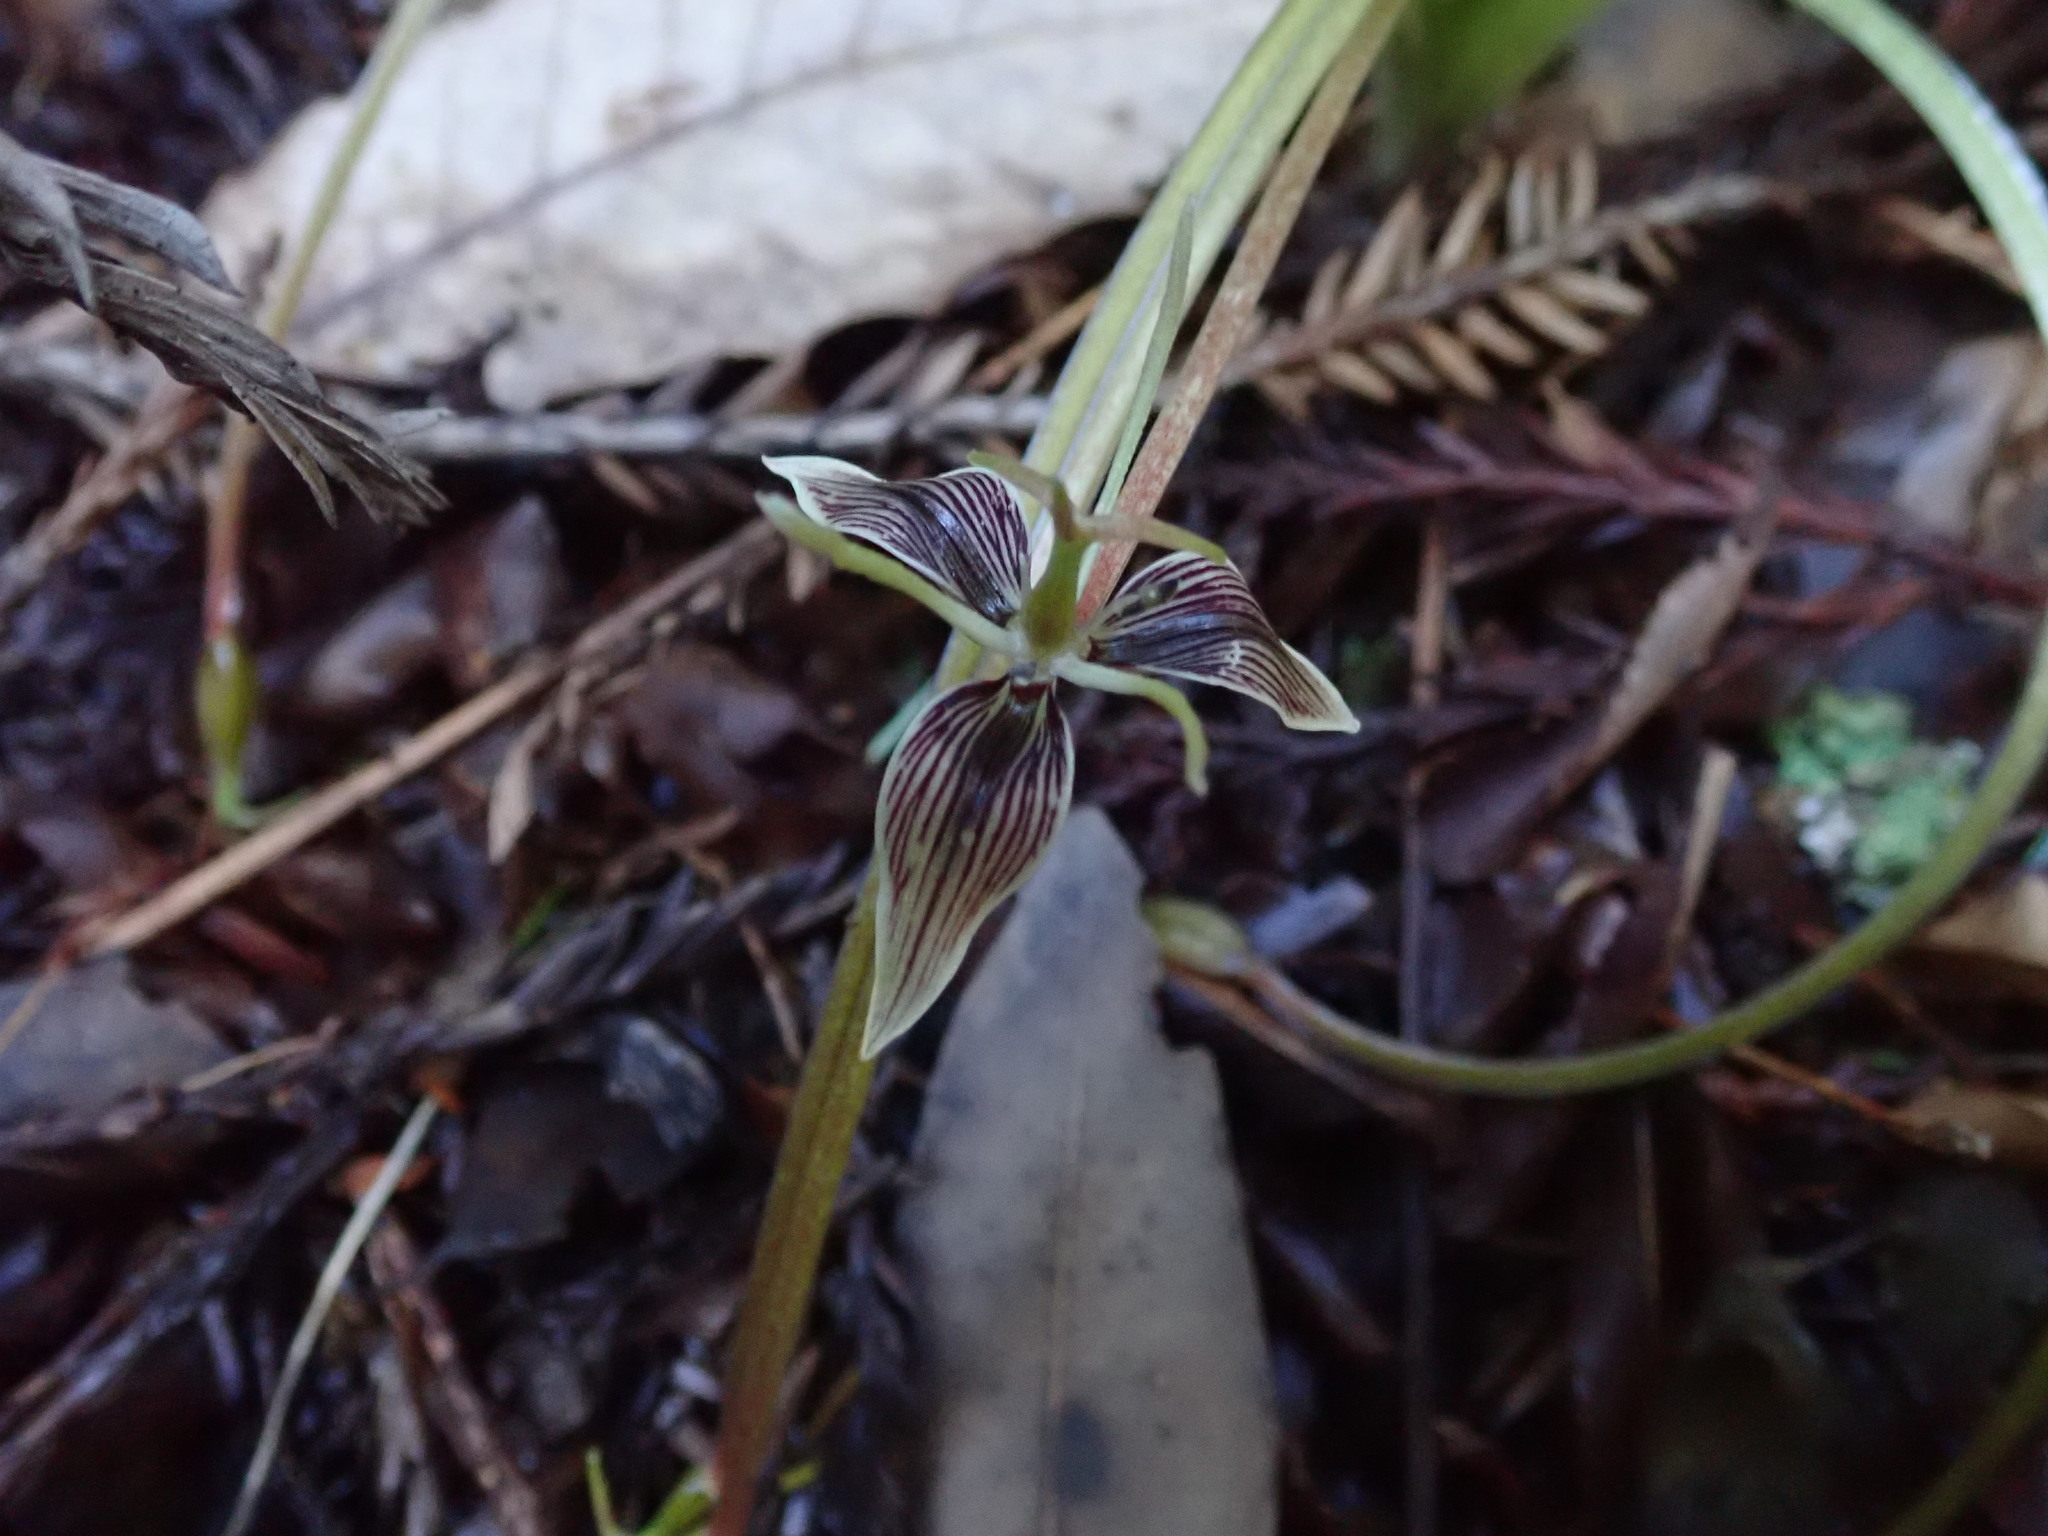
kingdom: Plantae
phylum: Tracheophyta
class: Liliopsida
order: Liliales
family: Liliaceae
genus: Scoliopus
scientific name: Scoliopus bigelovii
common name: Foetid adder's-tongue
